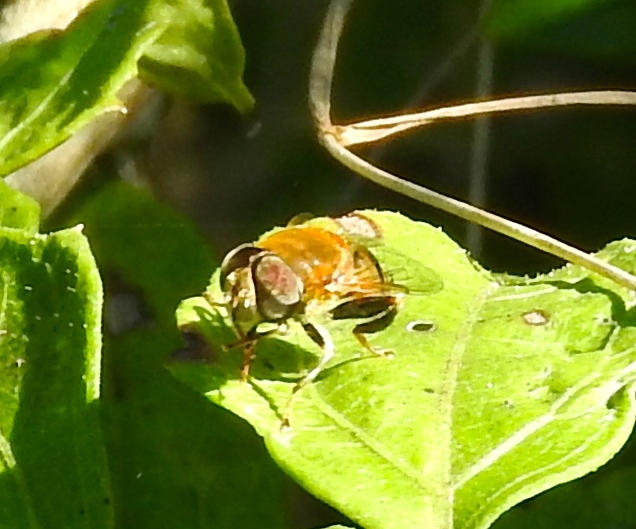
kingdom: Animalia
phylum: Arthropoda
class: Insecta
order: Diptera
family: Syrphidae
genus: Palpada
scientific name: Palpada
